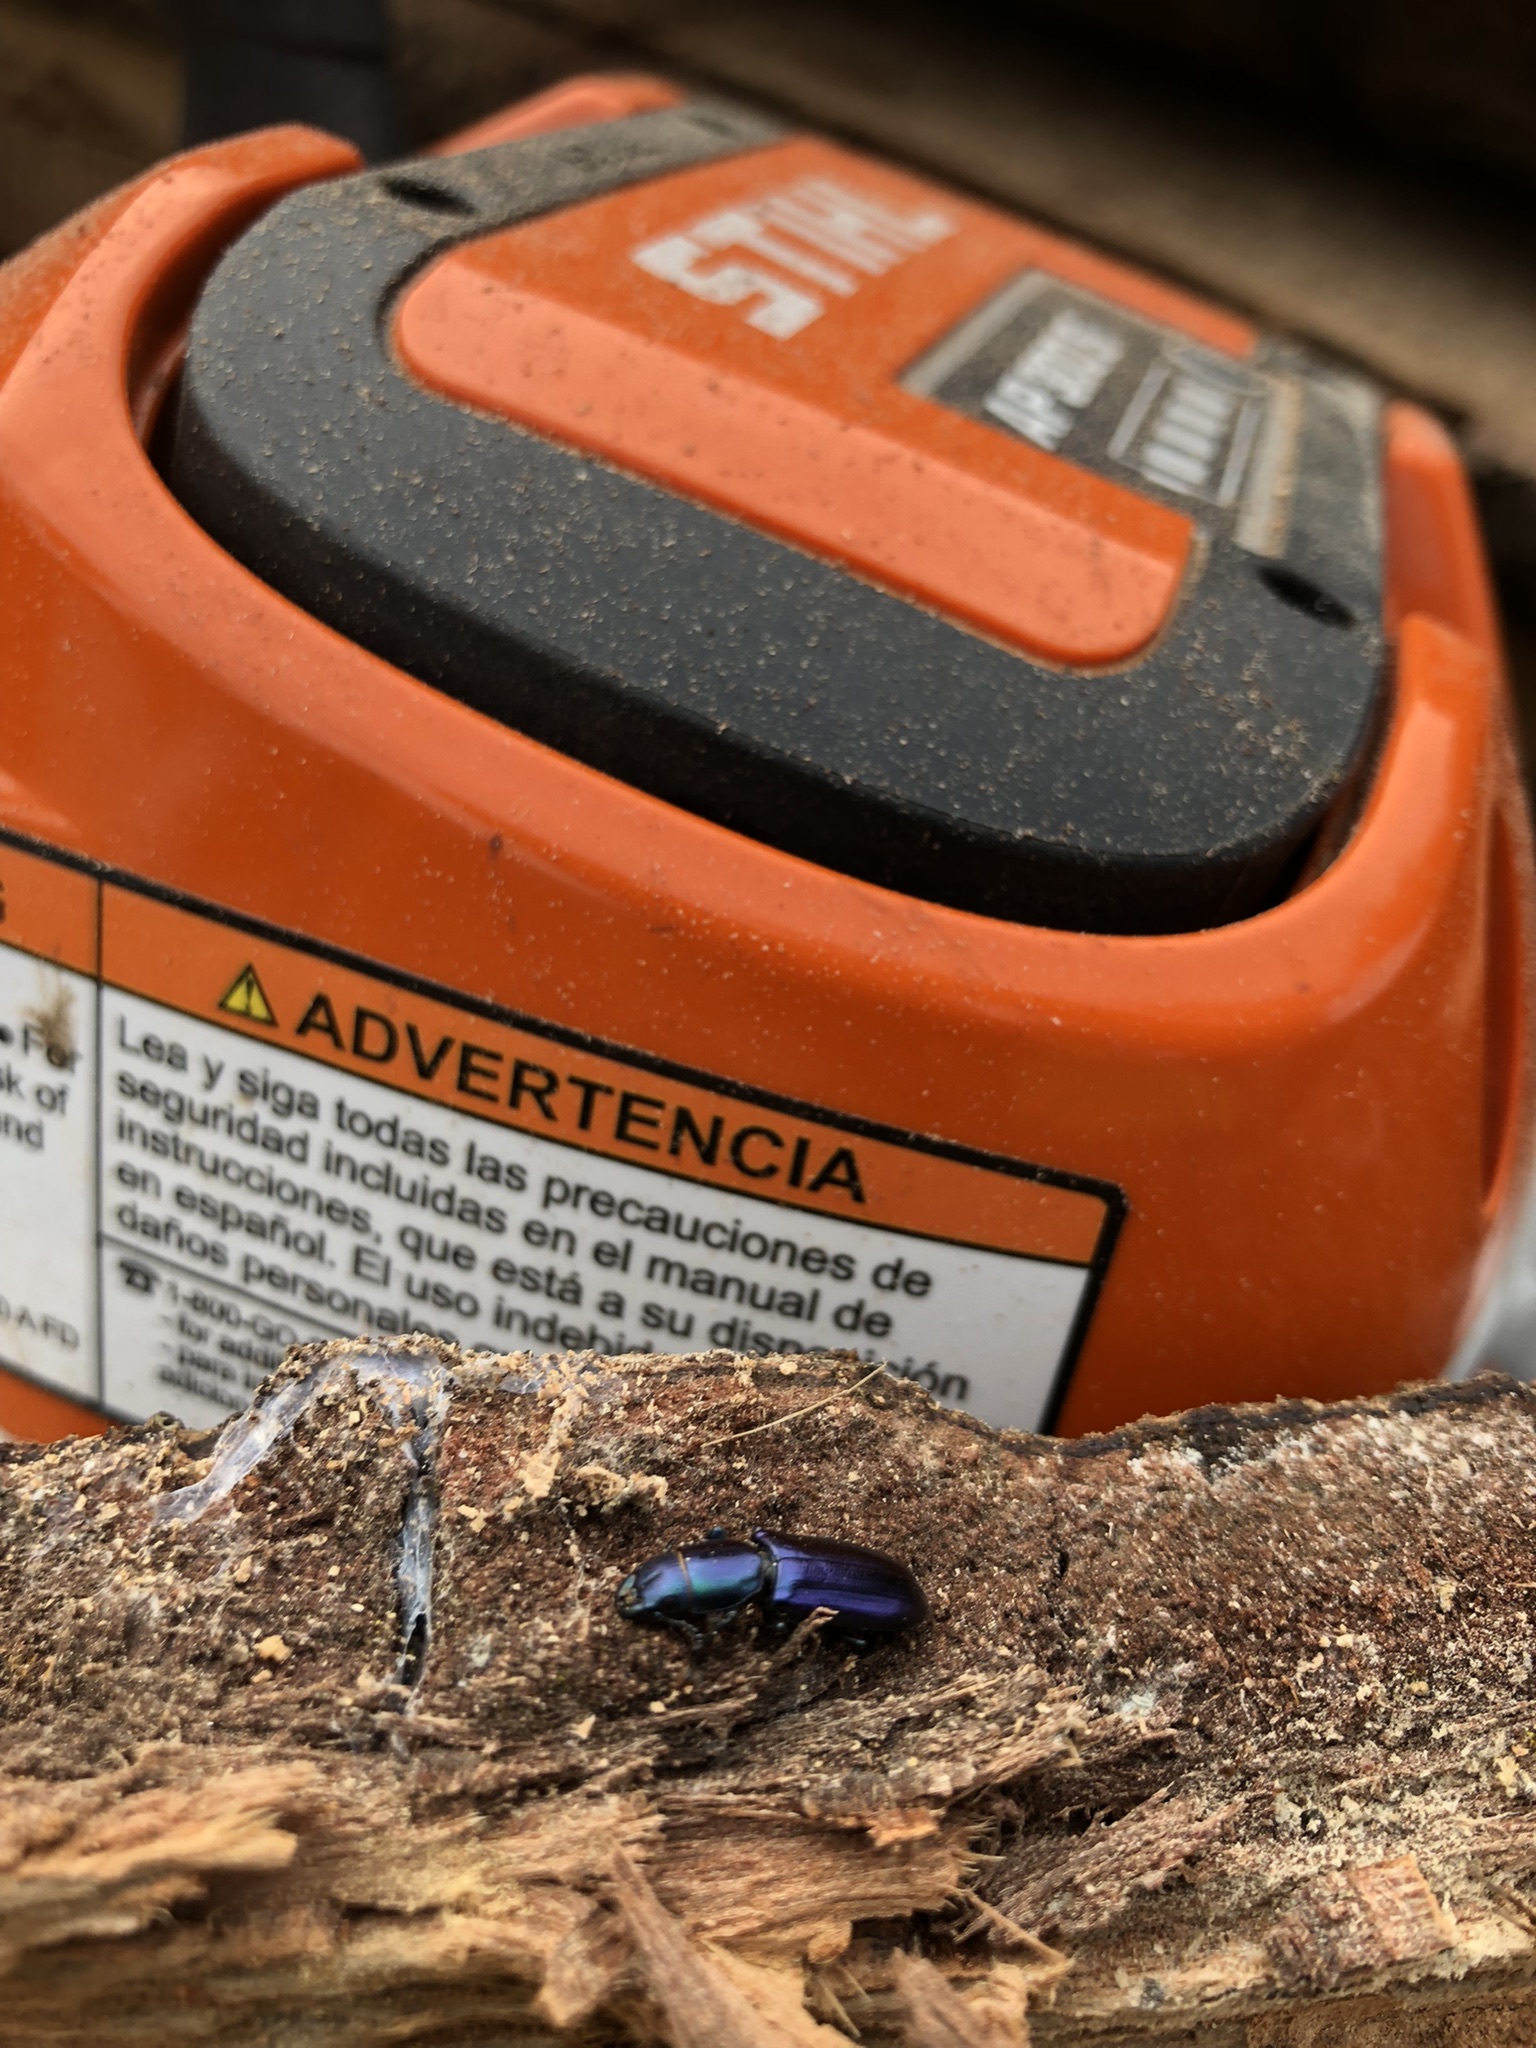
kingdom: Animalia
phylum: Arthropoda
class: Insecta
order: Coleoptera
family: Trogossitidae
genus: Temnoscheila
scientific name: Temnoscheila chlorodia
